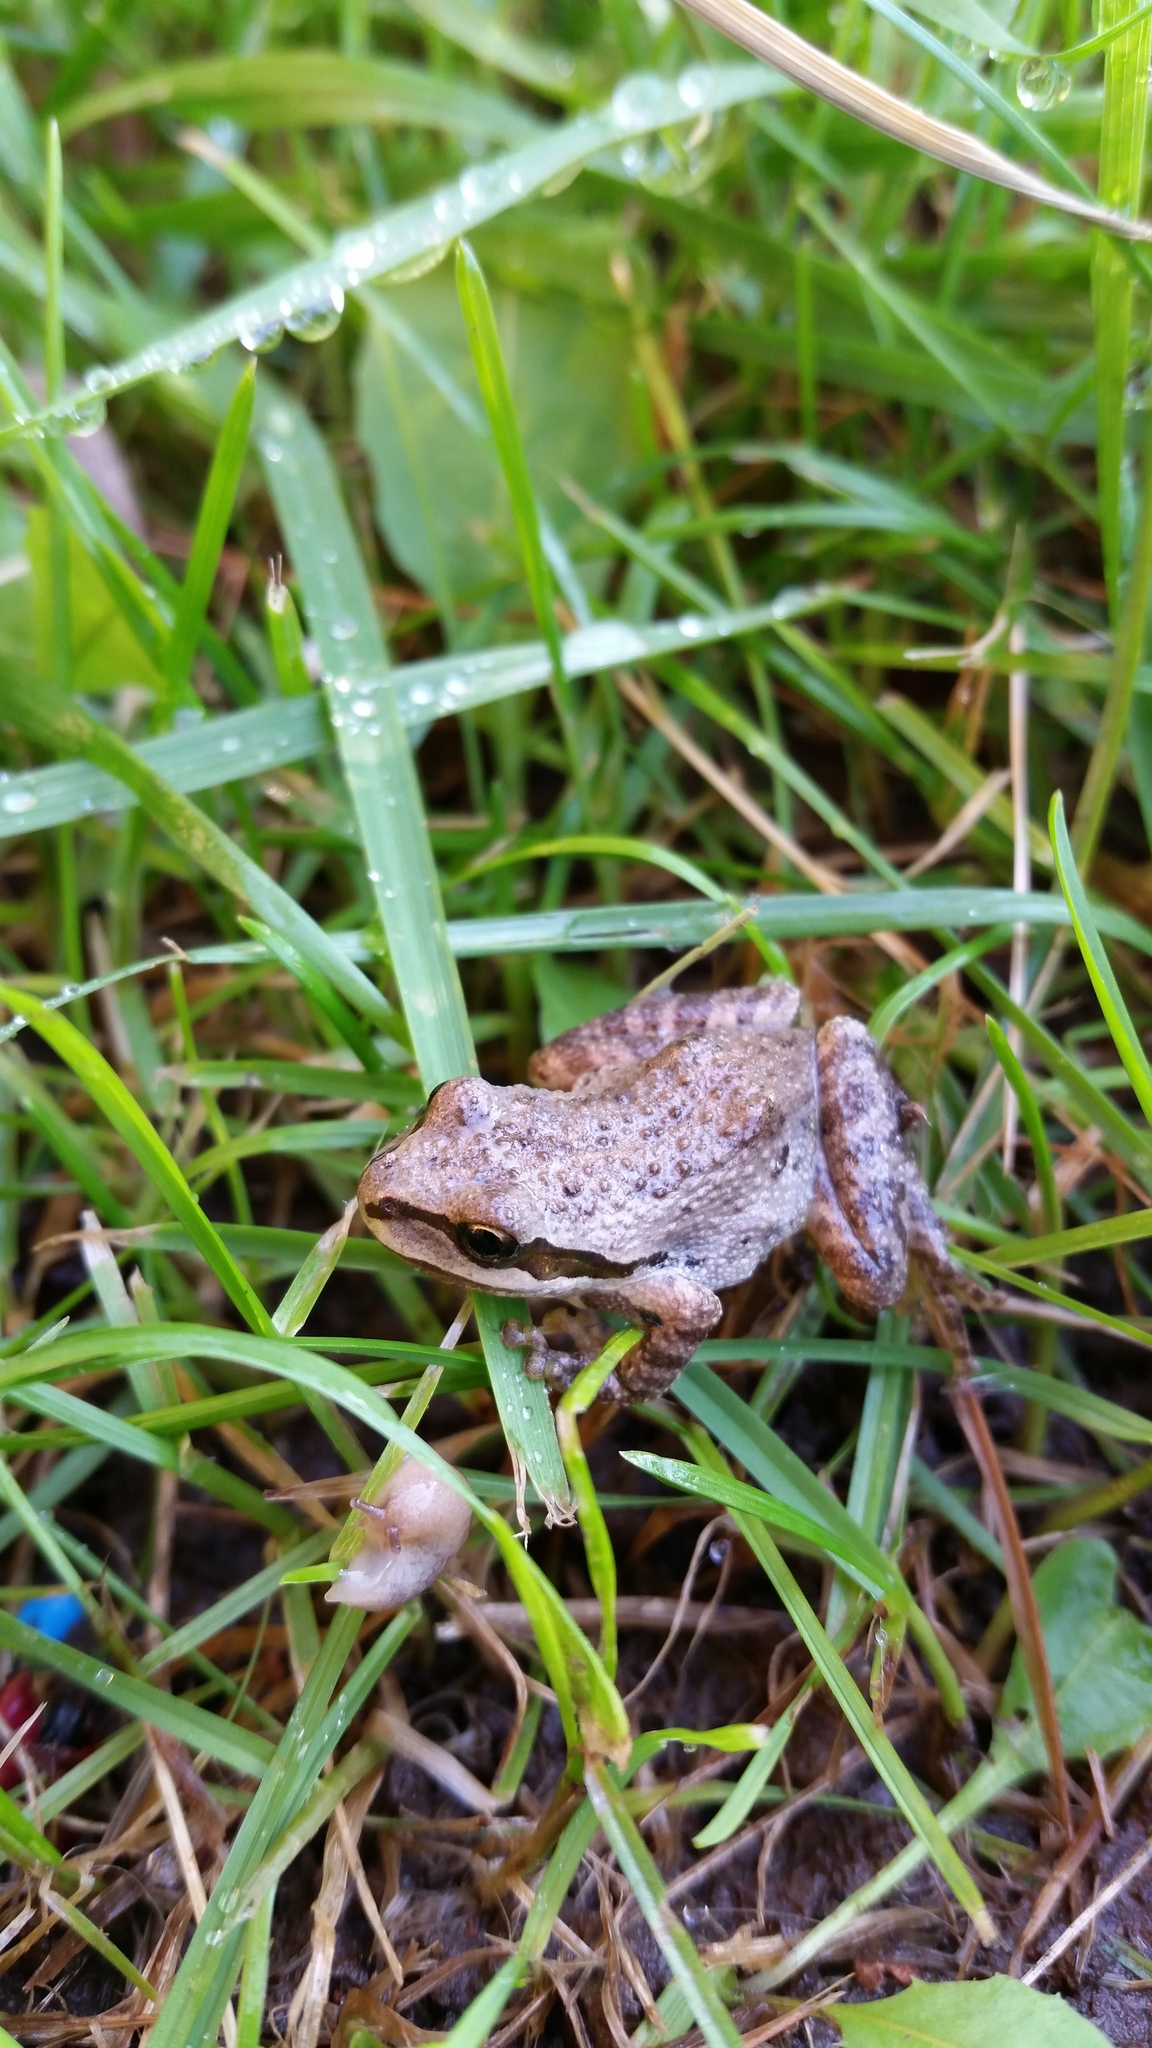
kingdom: Animalia
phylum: Chordata
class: Amphibia
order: Anura
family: Hylidae
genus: Pseudacris
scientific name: Pseudacris regilla
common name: Pacific chorus frog
